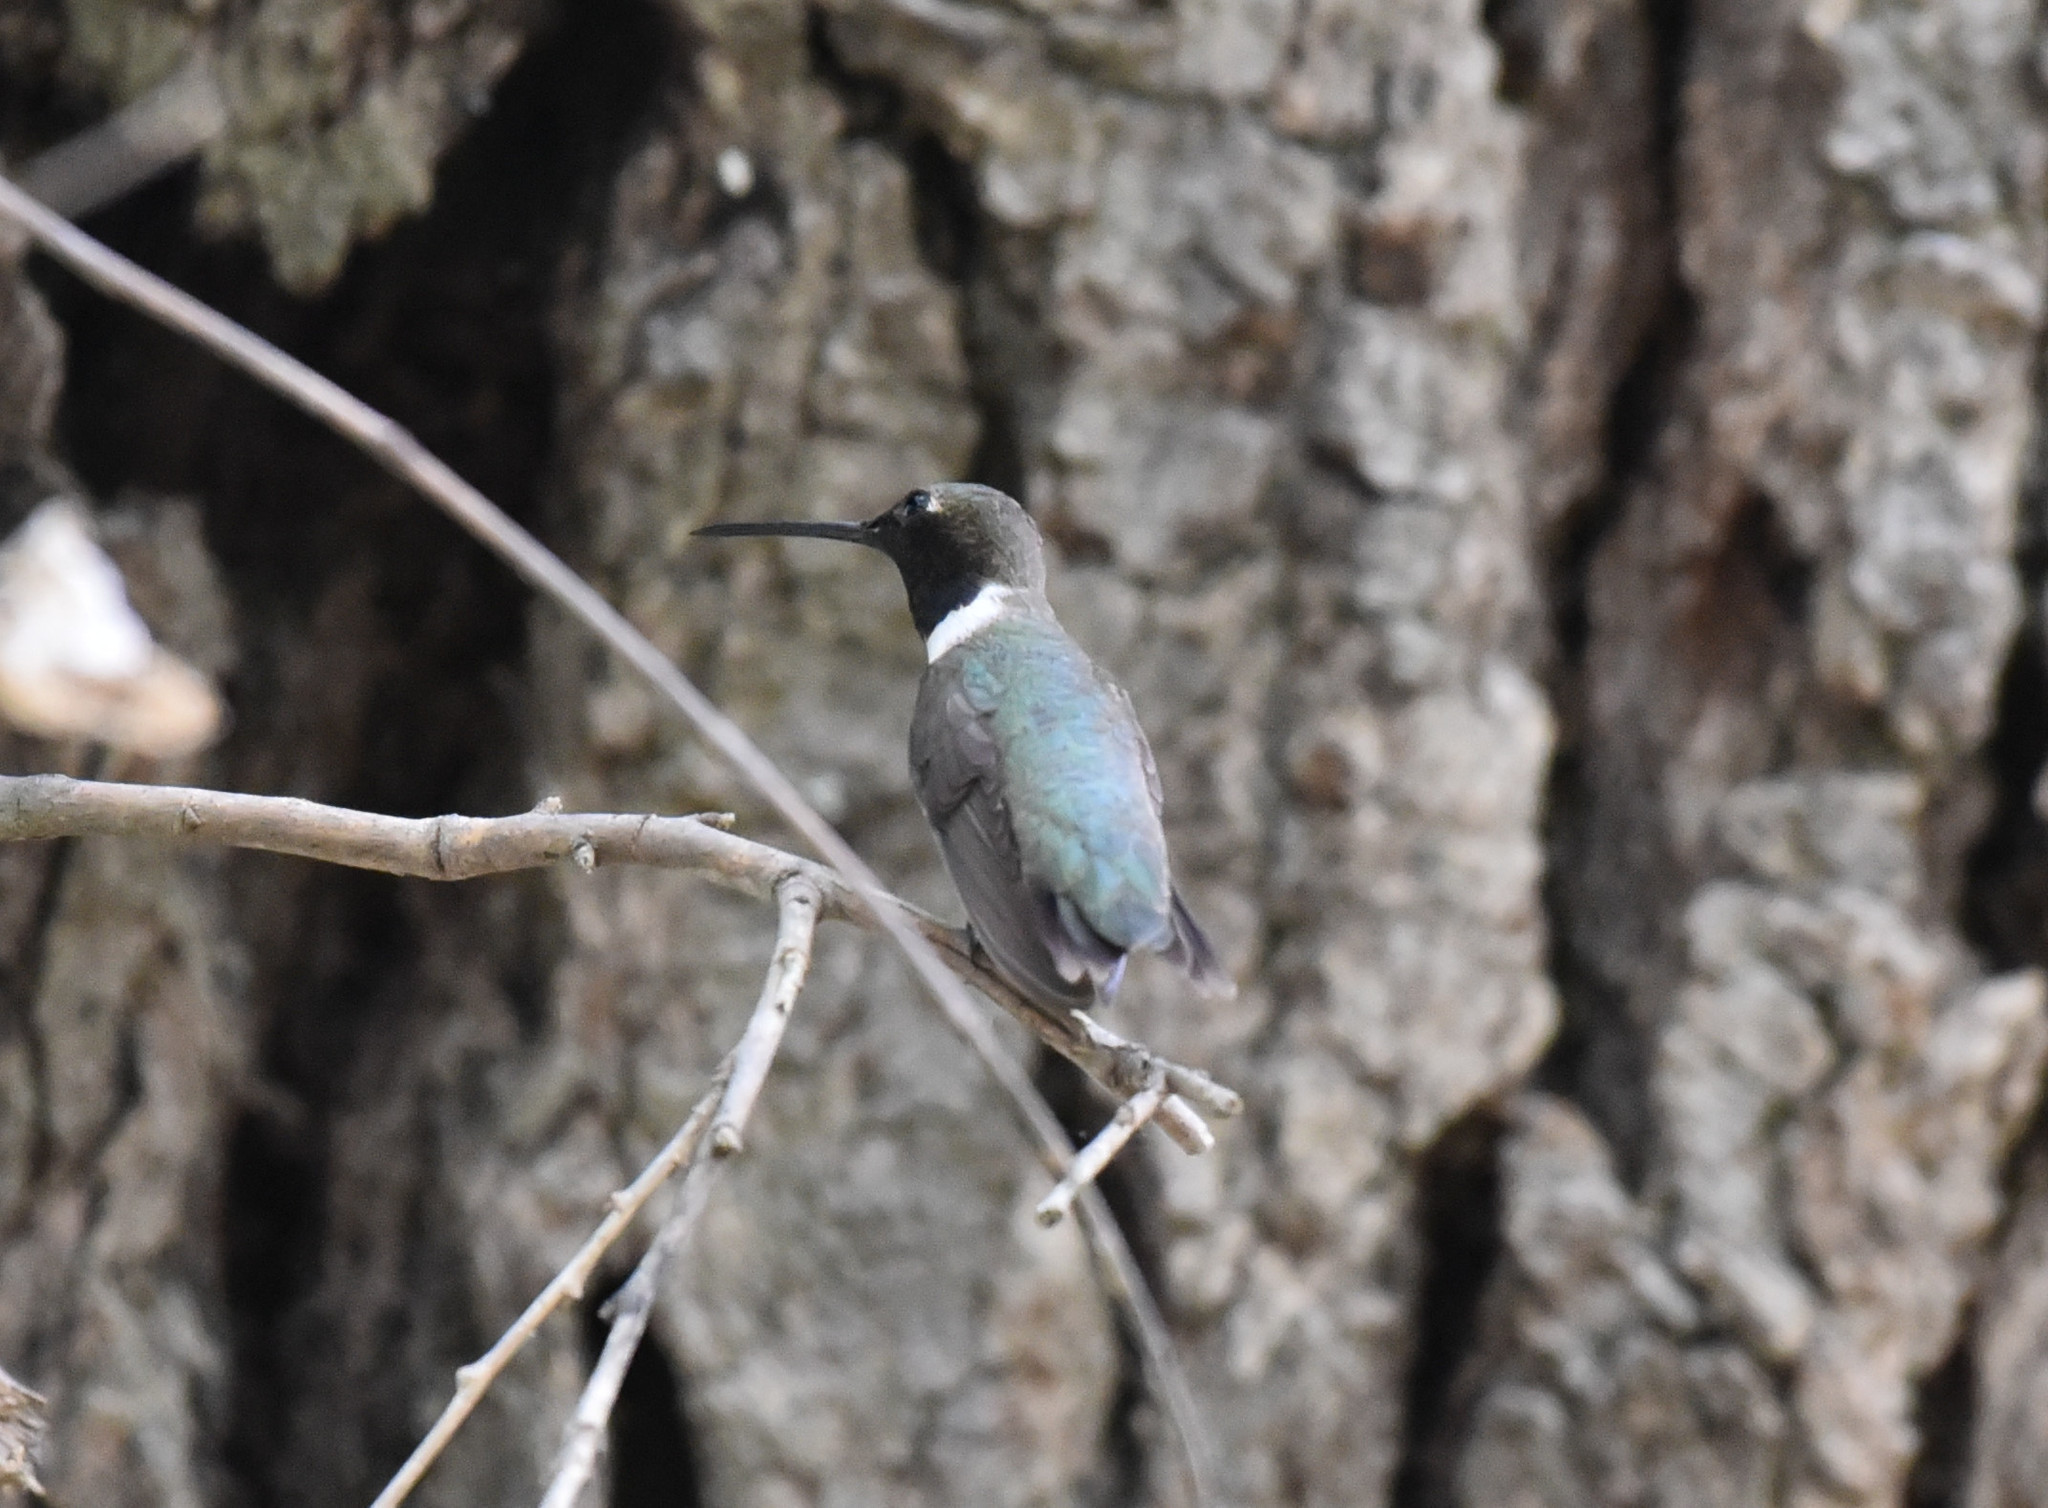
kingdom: Animalia
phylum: Chordata
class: Aves
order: Apodiformes
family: Trochilidae
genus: Archilochus
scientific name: Archilochus alexandri
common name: Black-chinned hummingbird
